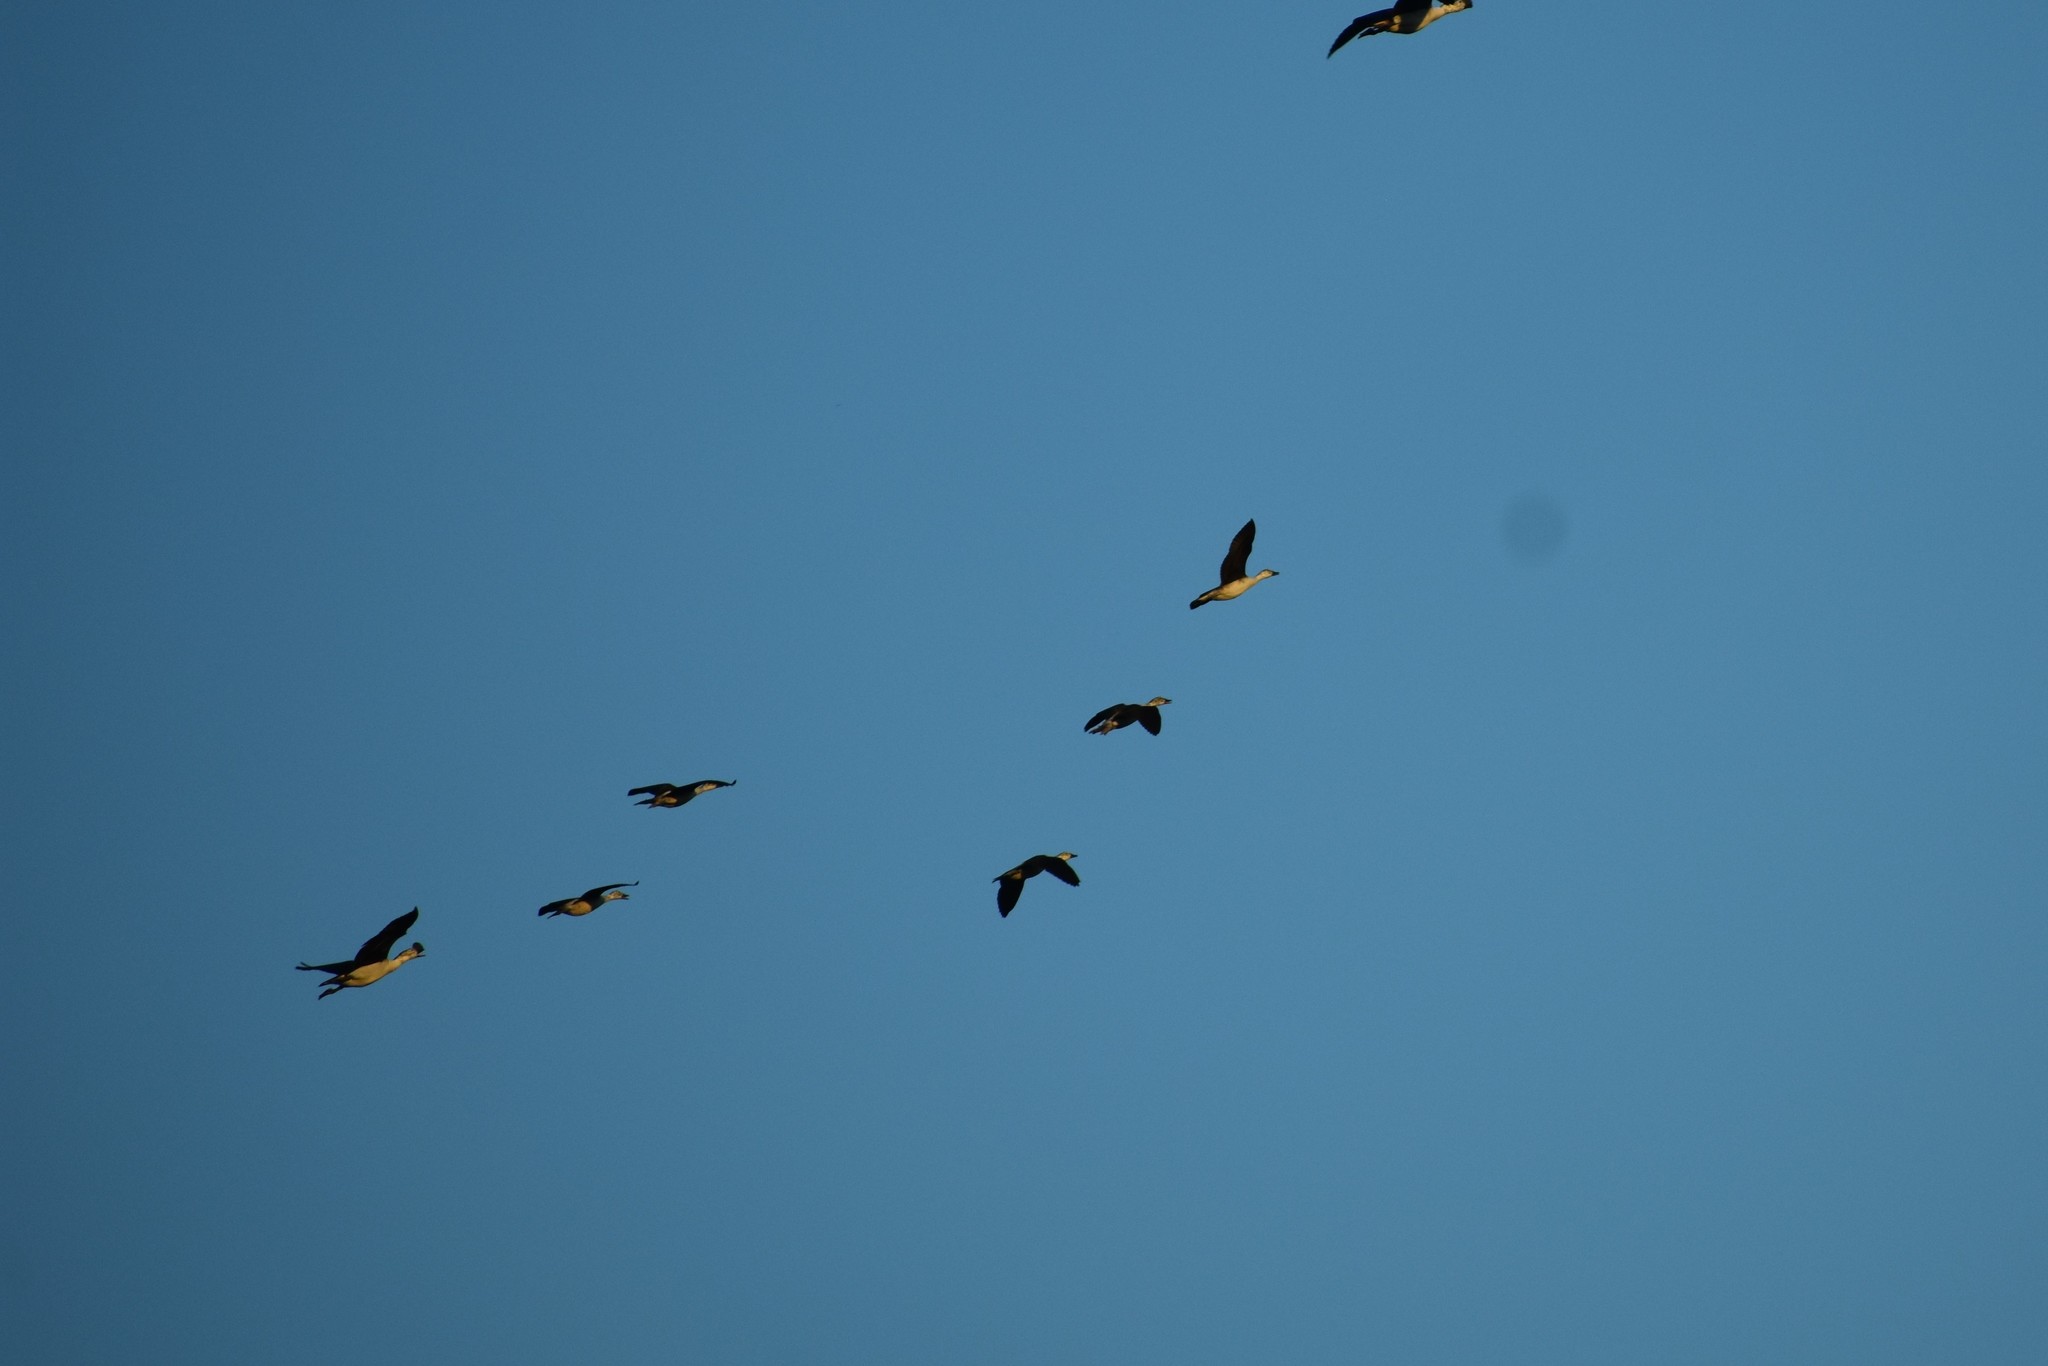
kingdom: Animalia
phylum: Chordata
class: Aves
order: Anseriformes
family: Anatidae
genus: Sarkidiornis
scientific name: Sarkidiornis melanotos
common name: Comb duck
